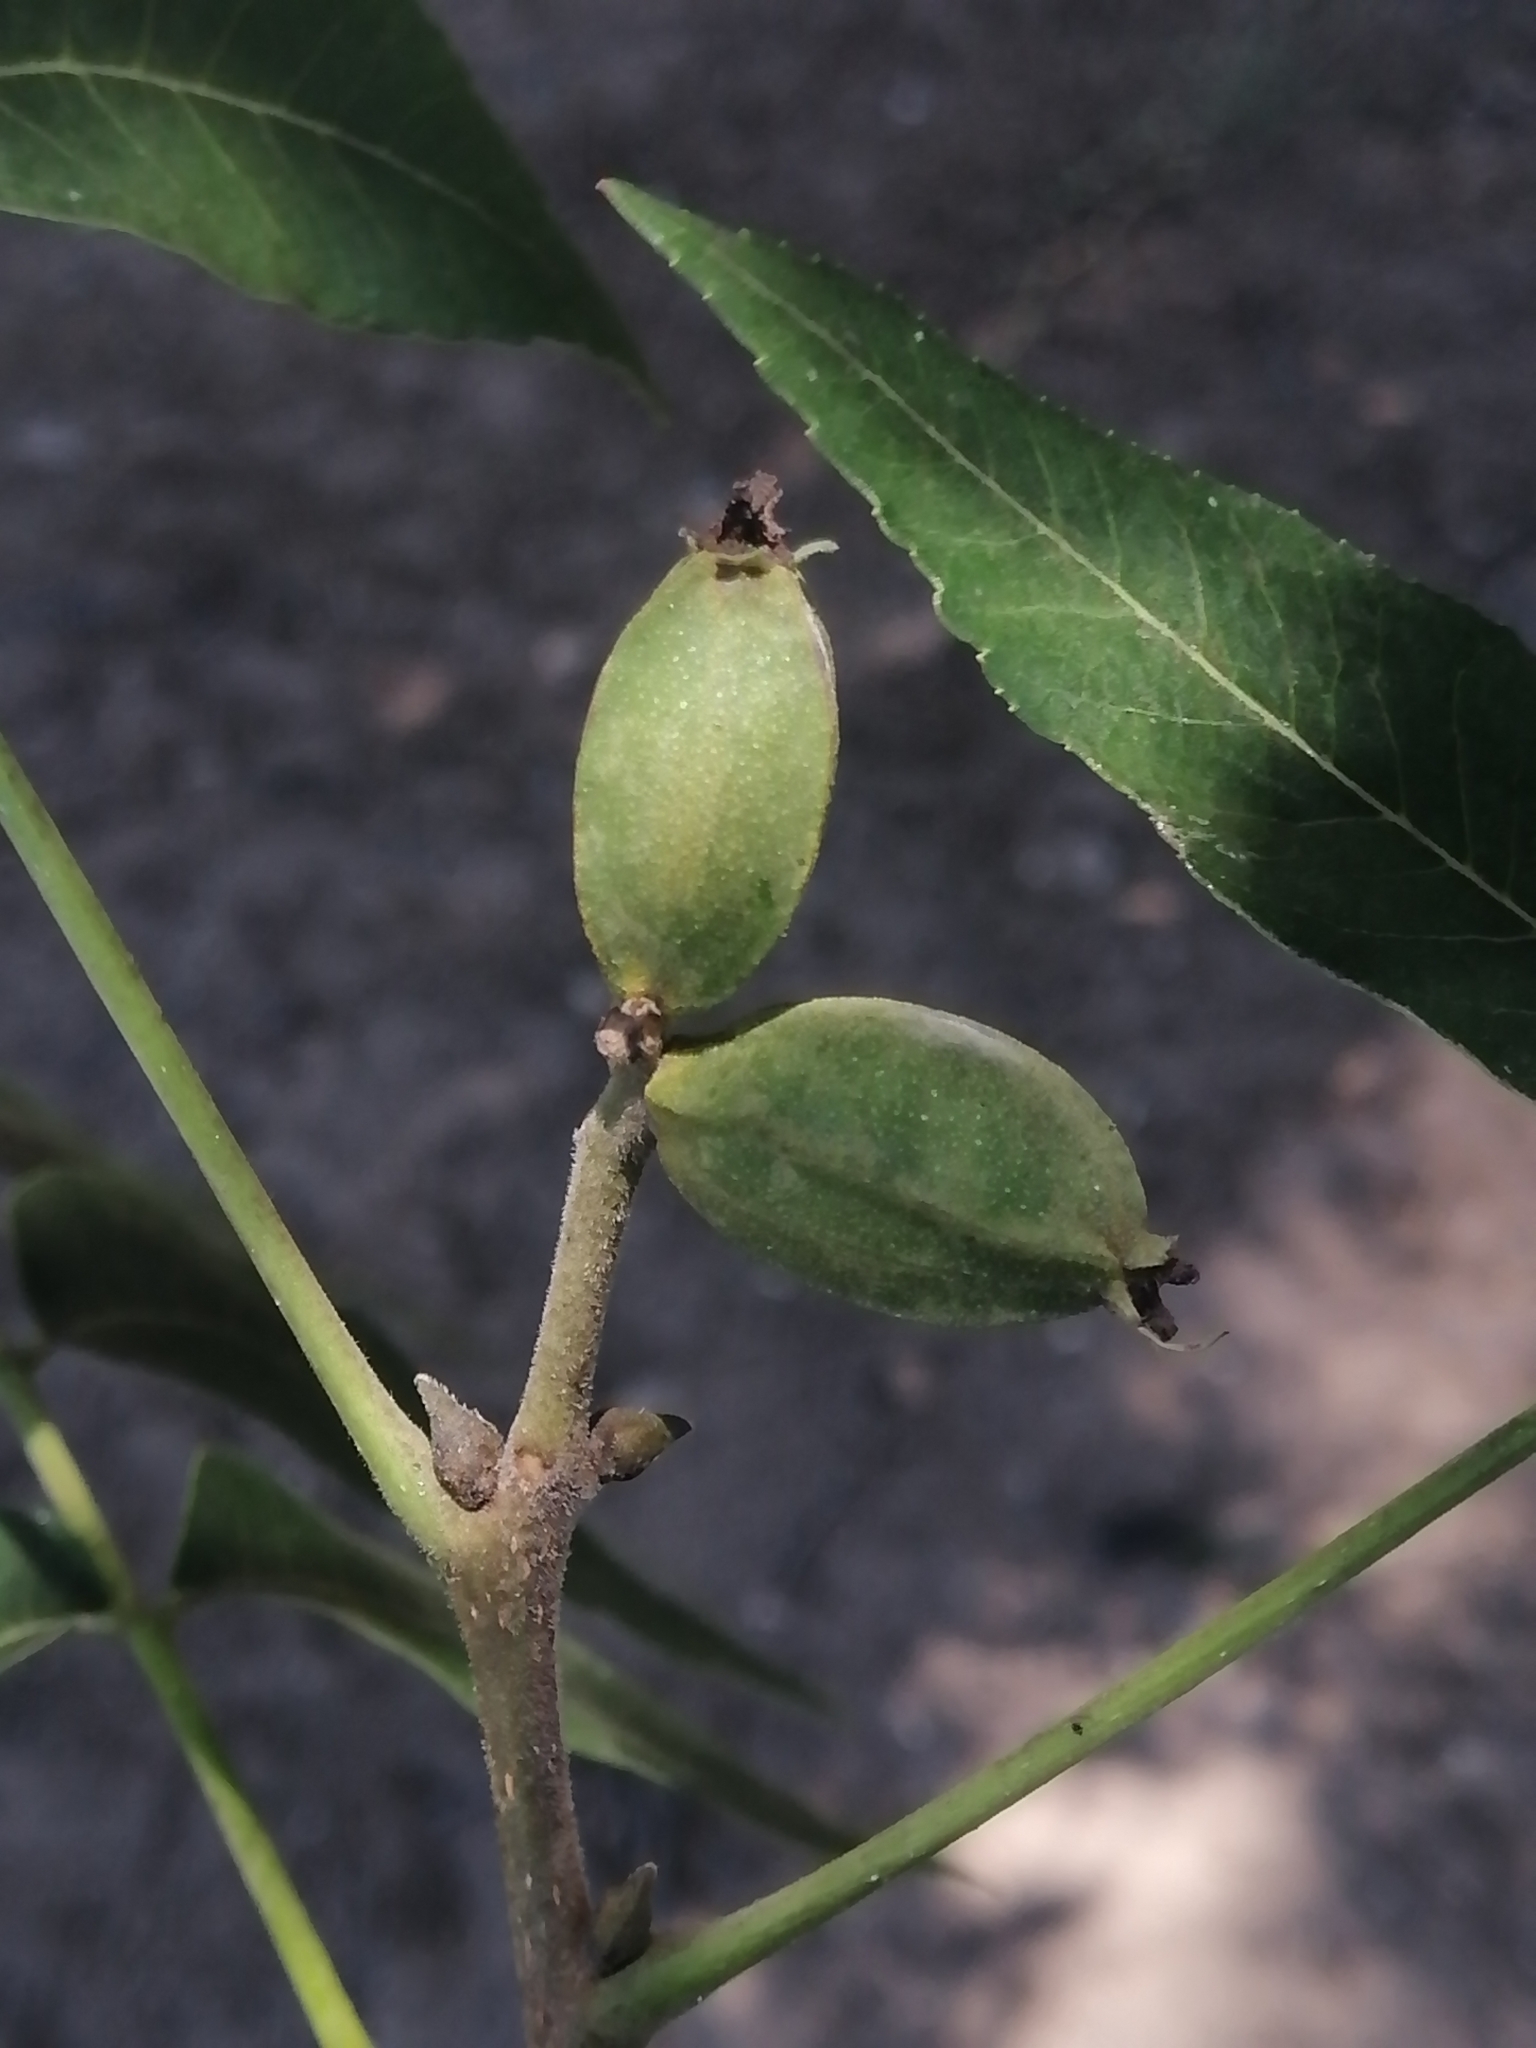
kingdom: Plantae
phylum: Tracheophyta
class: Magnoliopsida
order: Fagales
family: Juglandaceae
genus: Carya
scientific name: Carya illinoinensis
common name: Pecan
